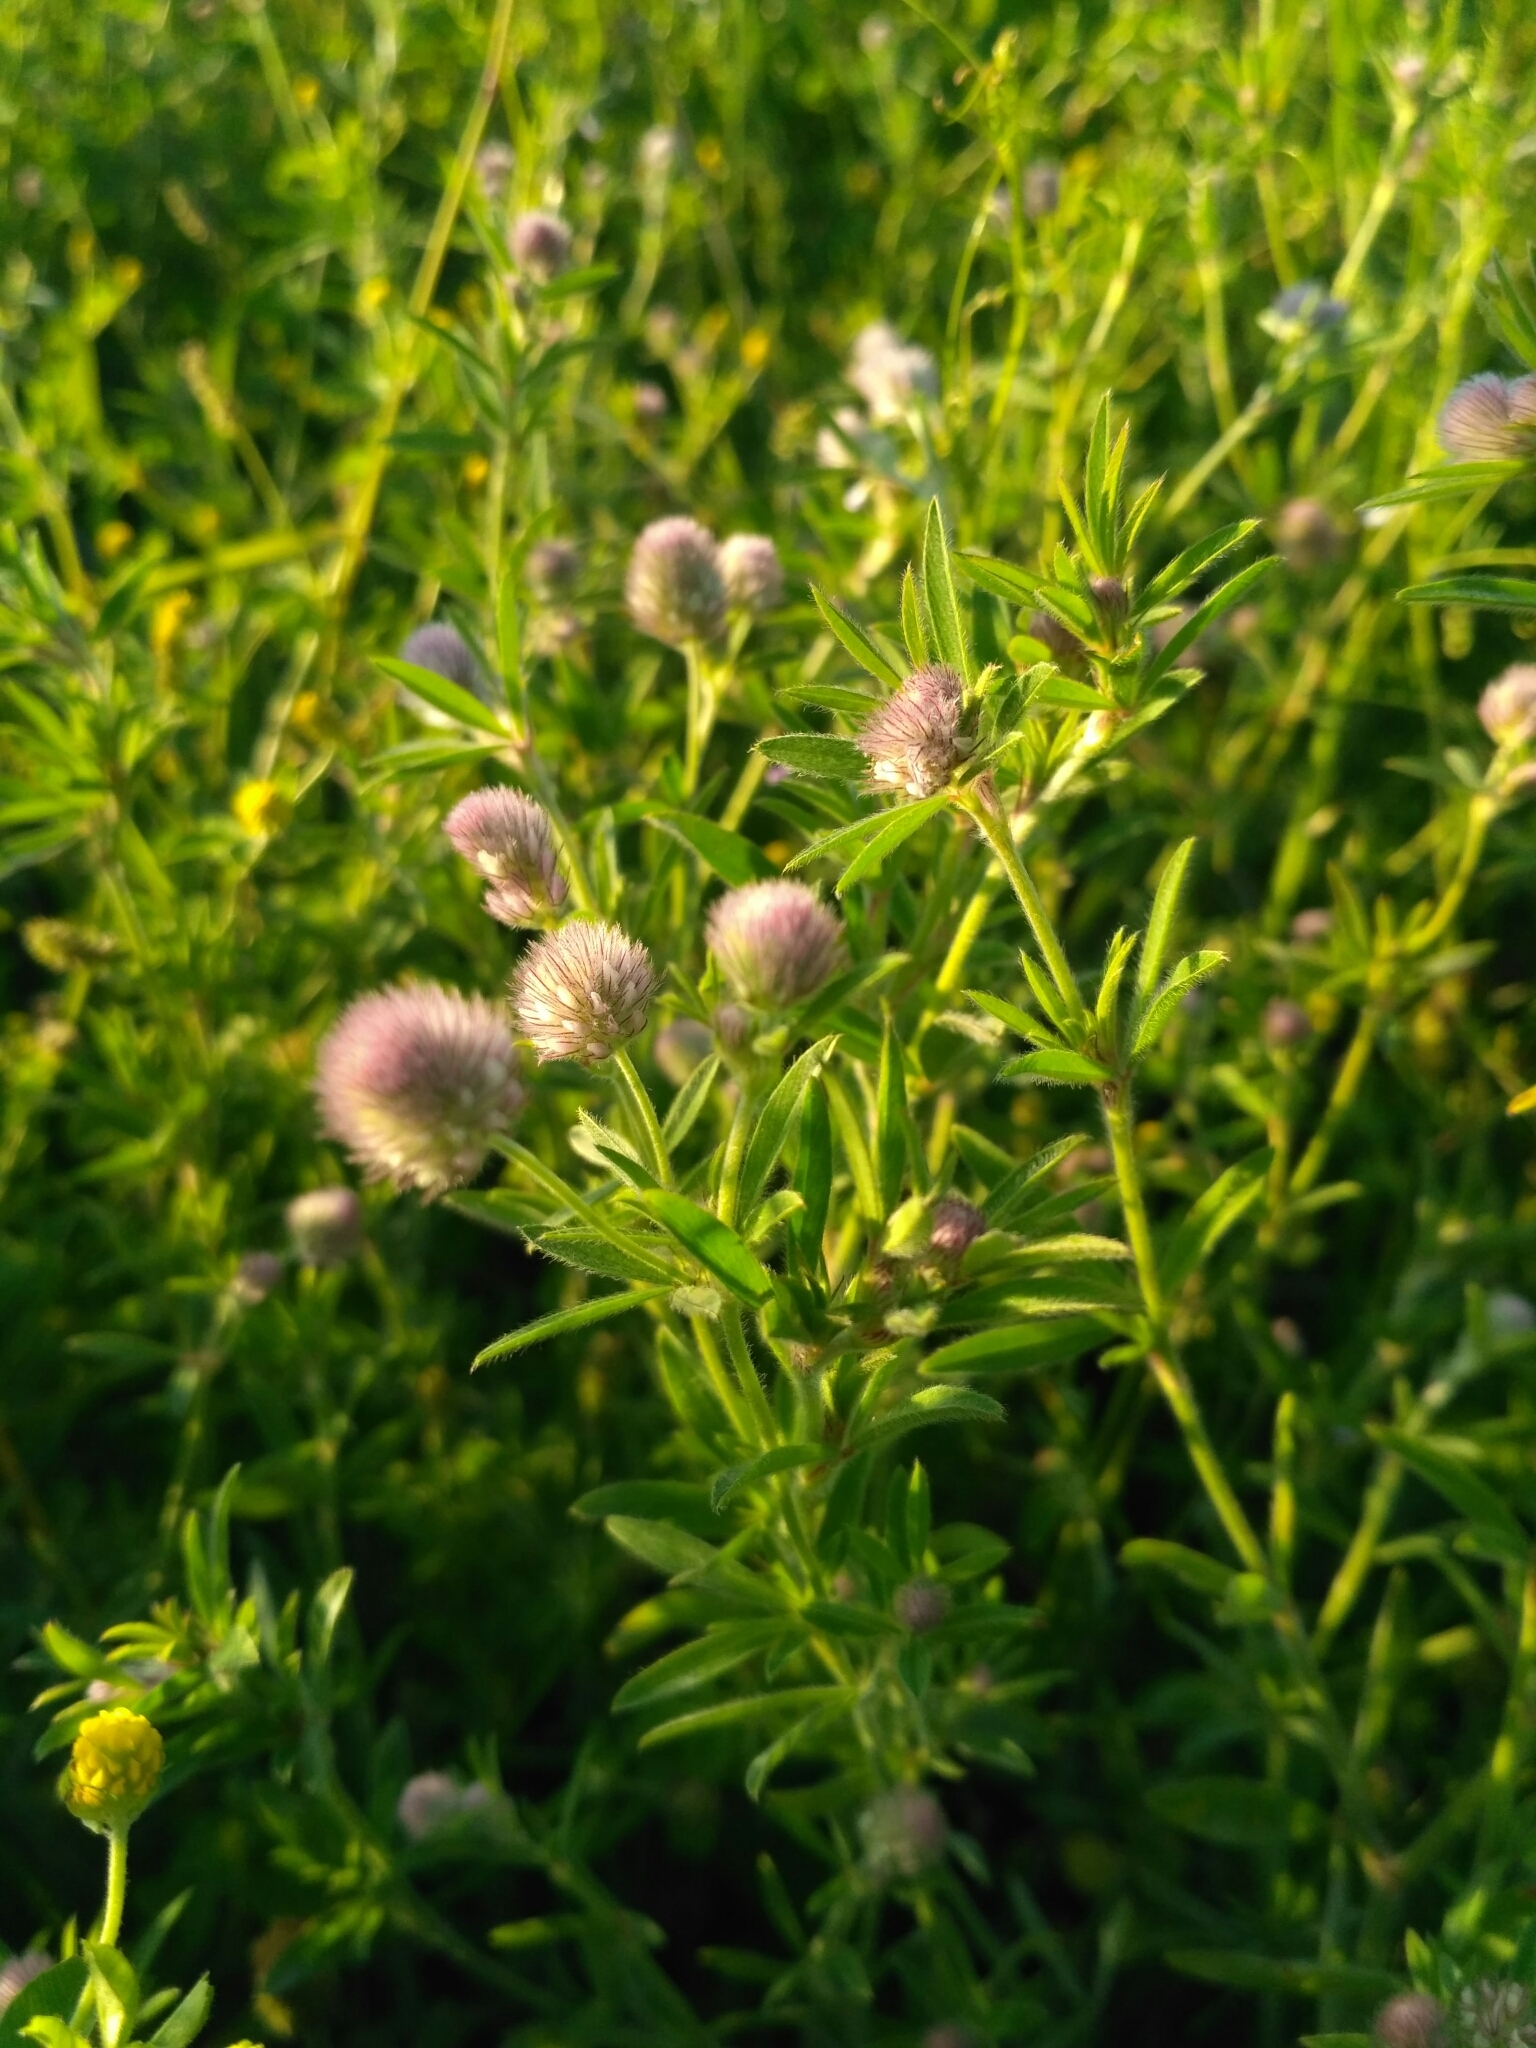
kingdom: Plantae
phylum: Tracheophyta
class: Magnoliopsida
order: Fabales
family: Fabaceae
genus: Trifolium
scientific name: Trifolium arvense
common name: Hare's-foot clover
